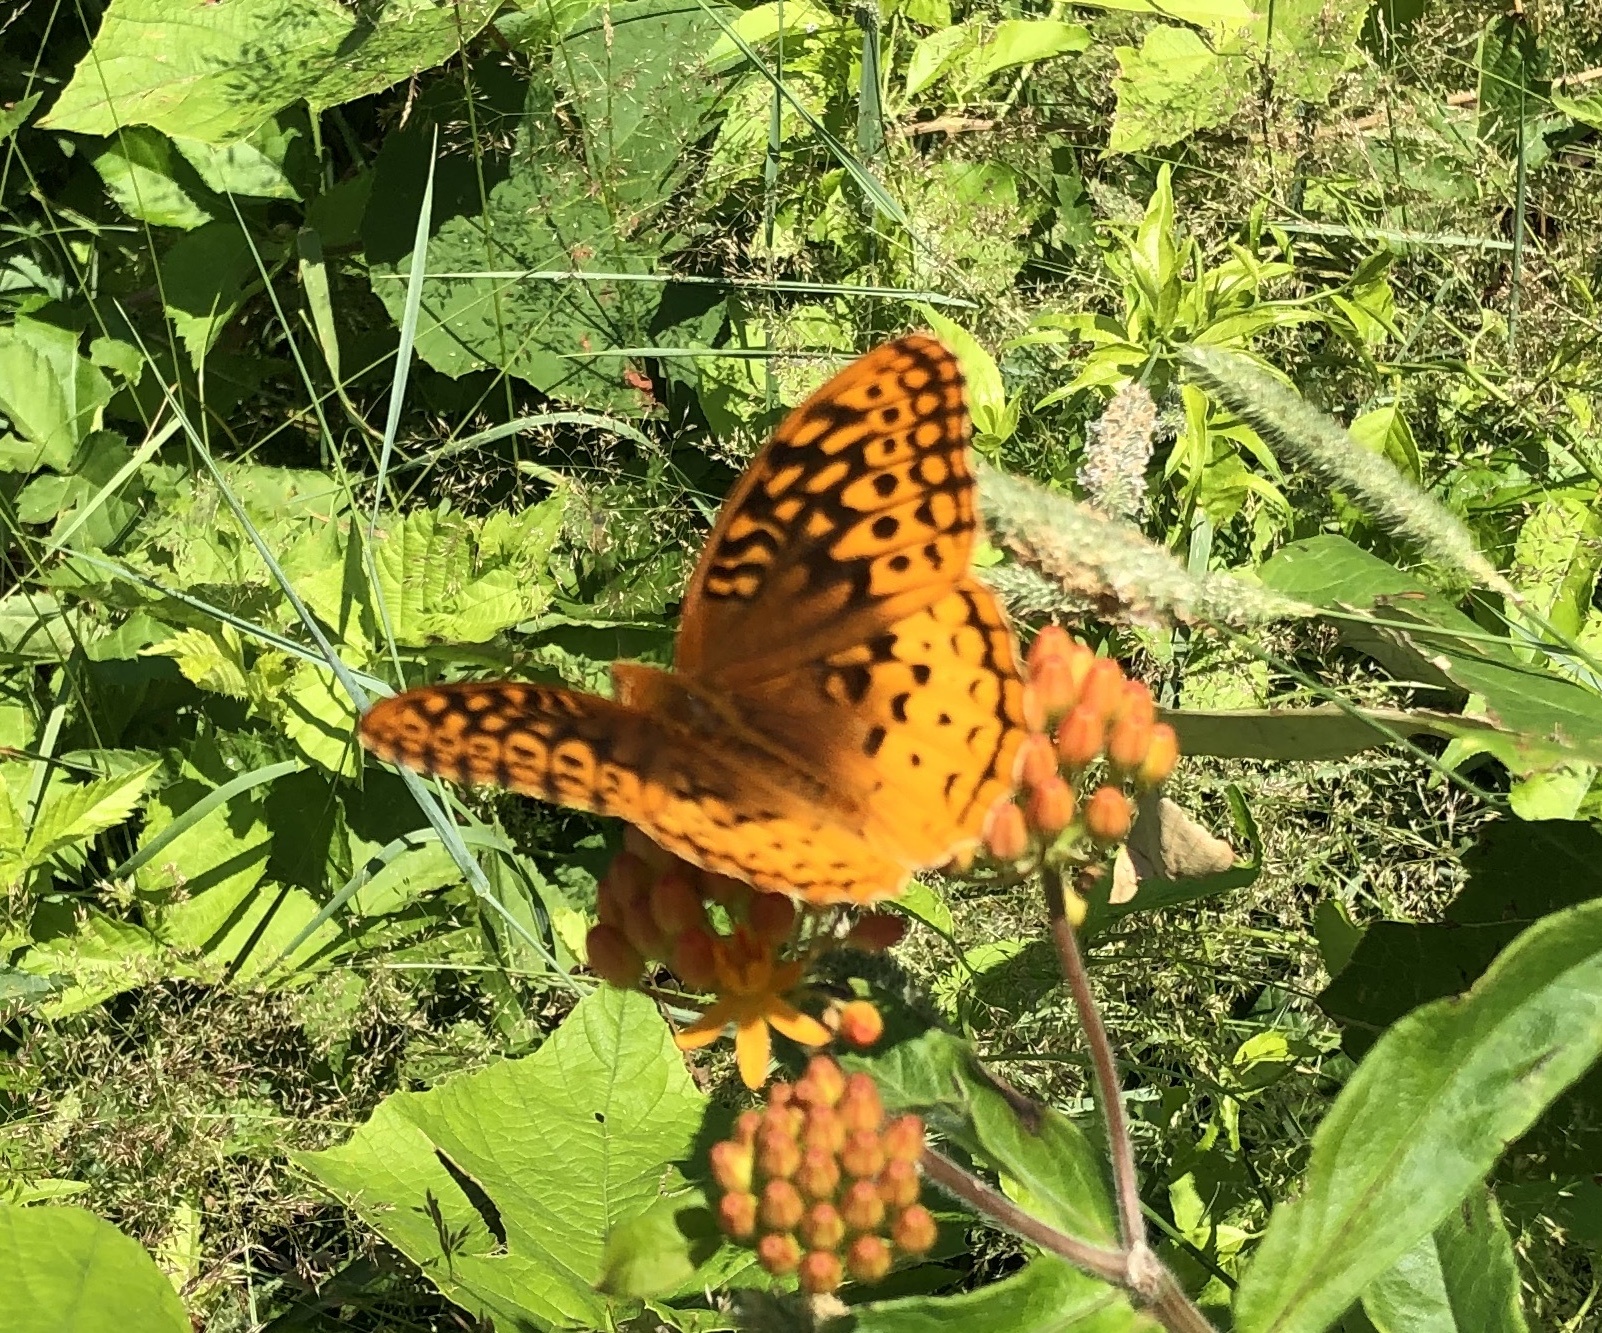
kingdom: Animalia
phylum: Arthropoda
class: Insecta
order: Lepidoptera
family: Nymphalidae
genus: Speyeria
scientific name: Speyeria cybele
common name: Great spangled fritillary
